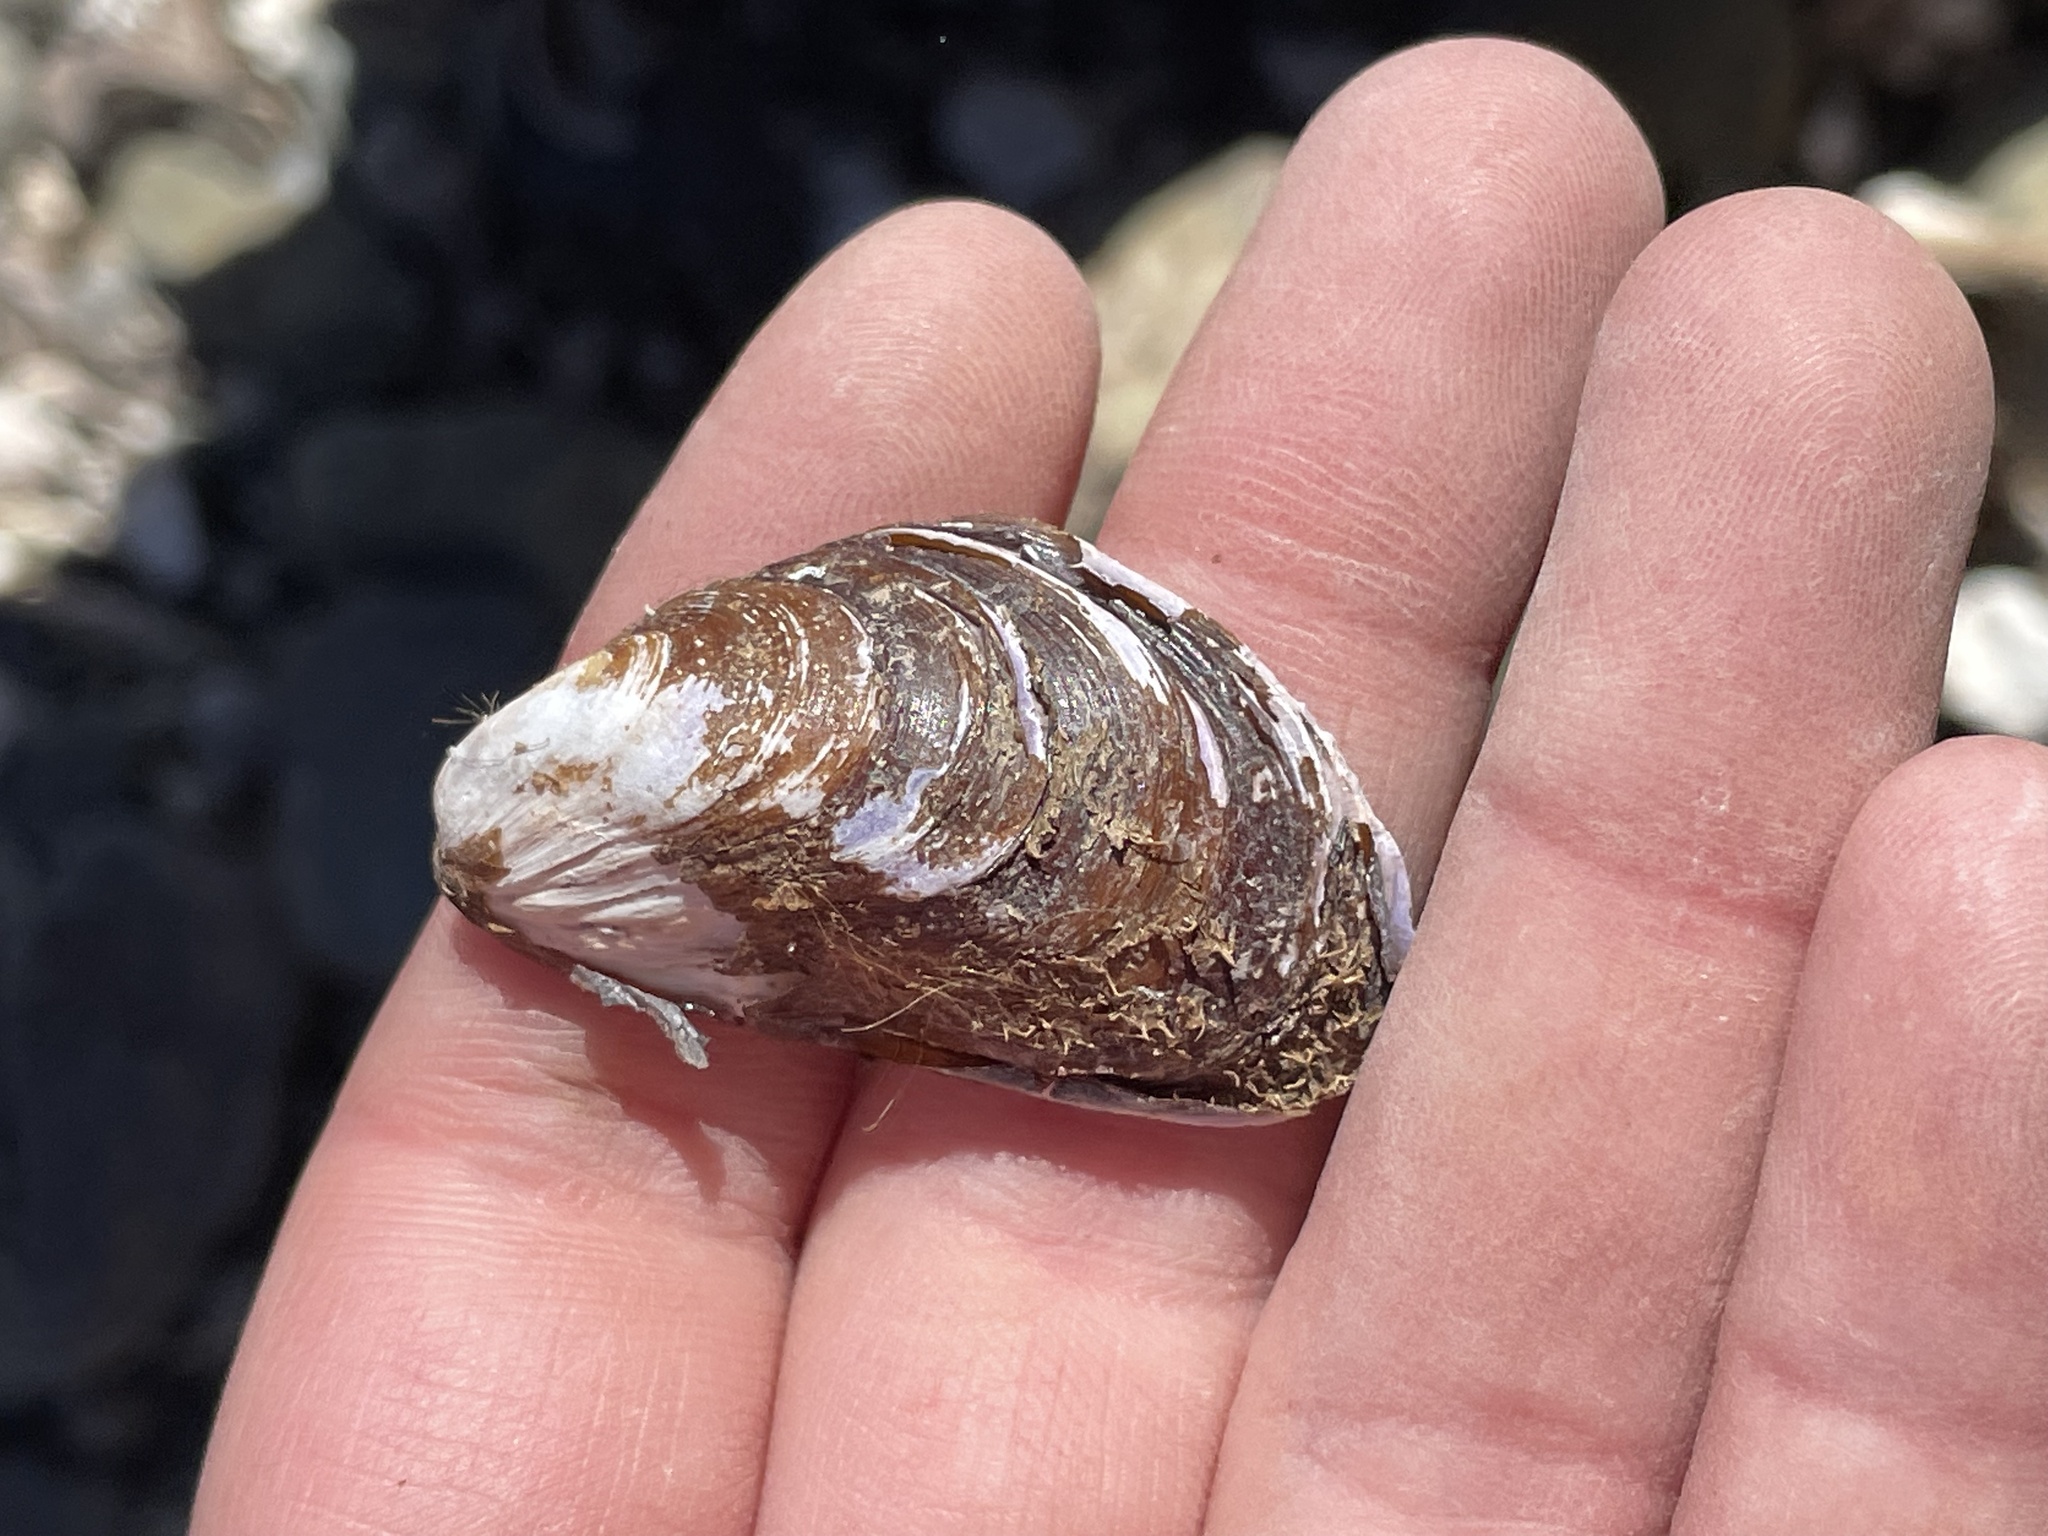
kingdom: Animalia
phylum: Mollusca
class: Bivalvia
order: Mytilida
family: Mytilidae
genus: Modiolus
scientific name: Modiolus modiolus
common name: Horse-mussel
